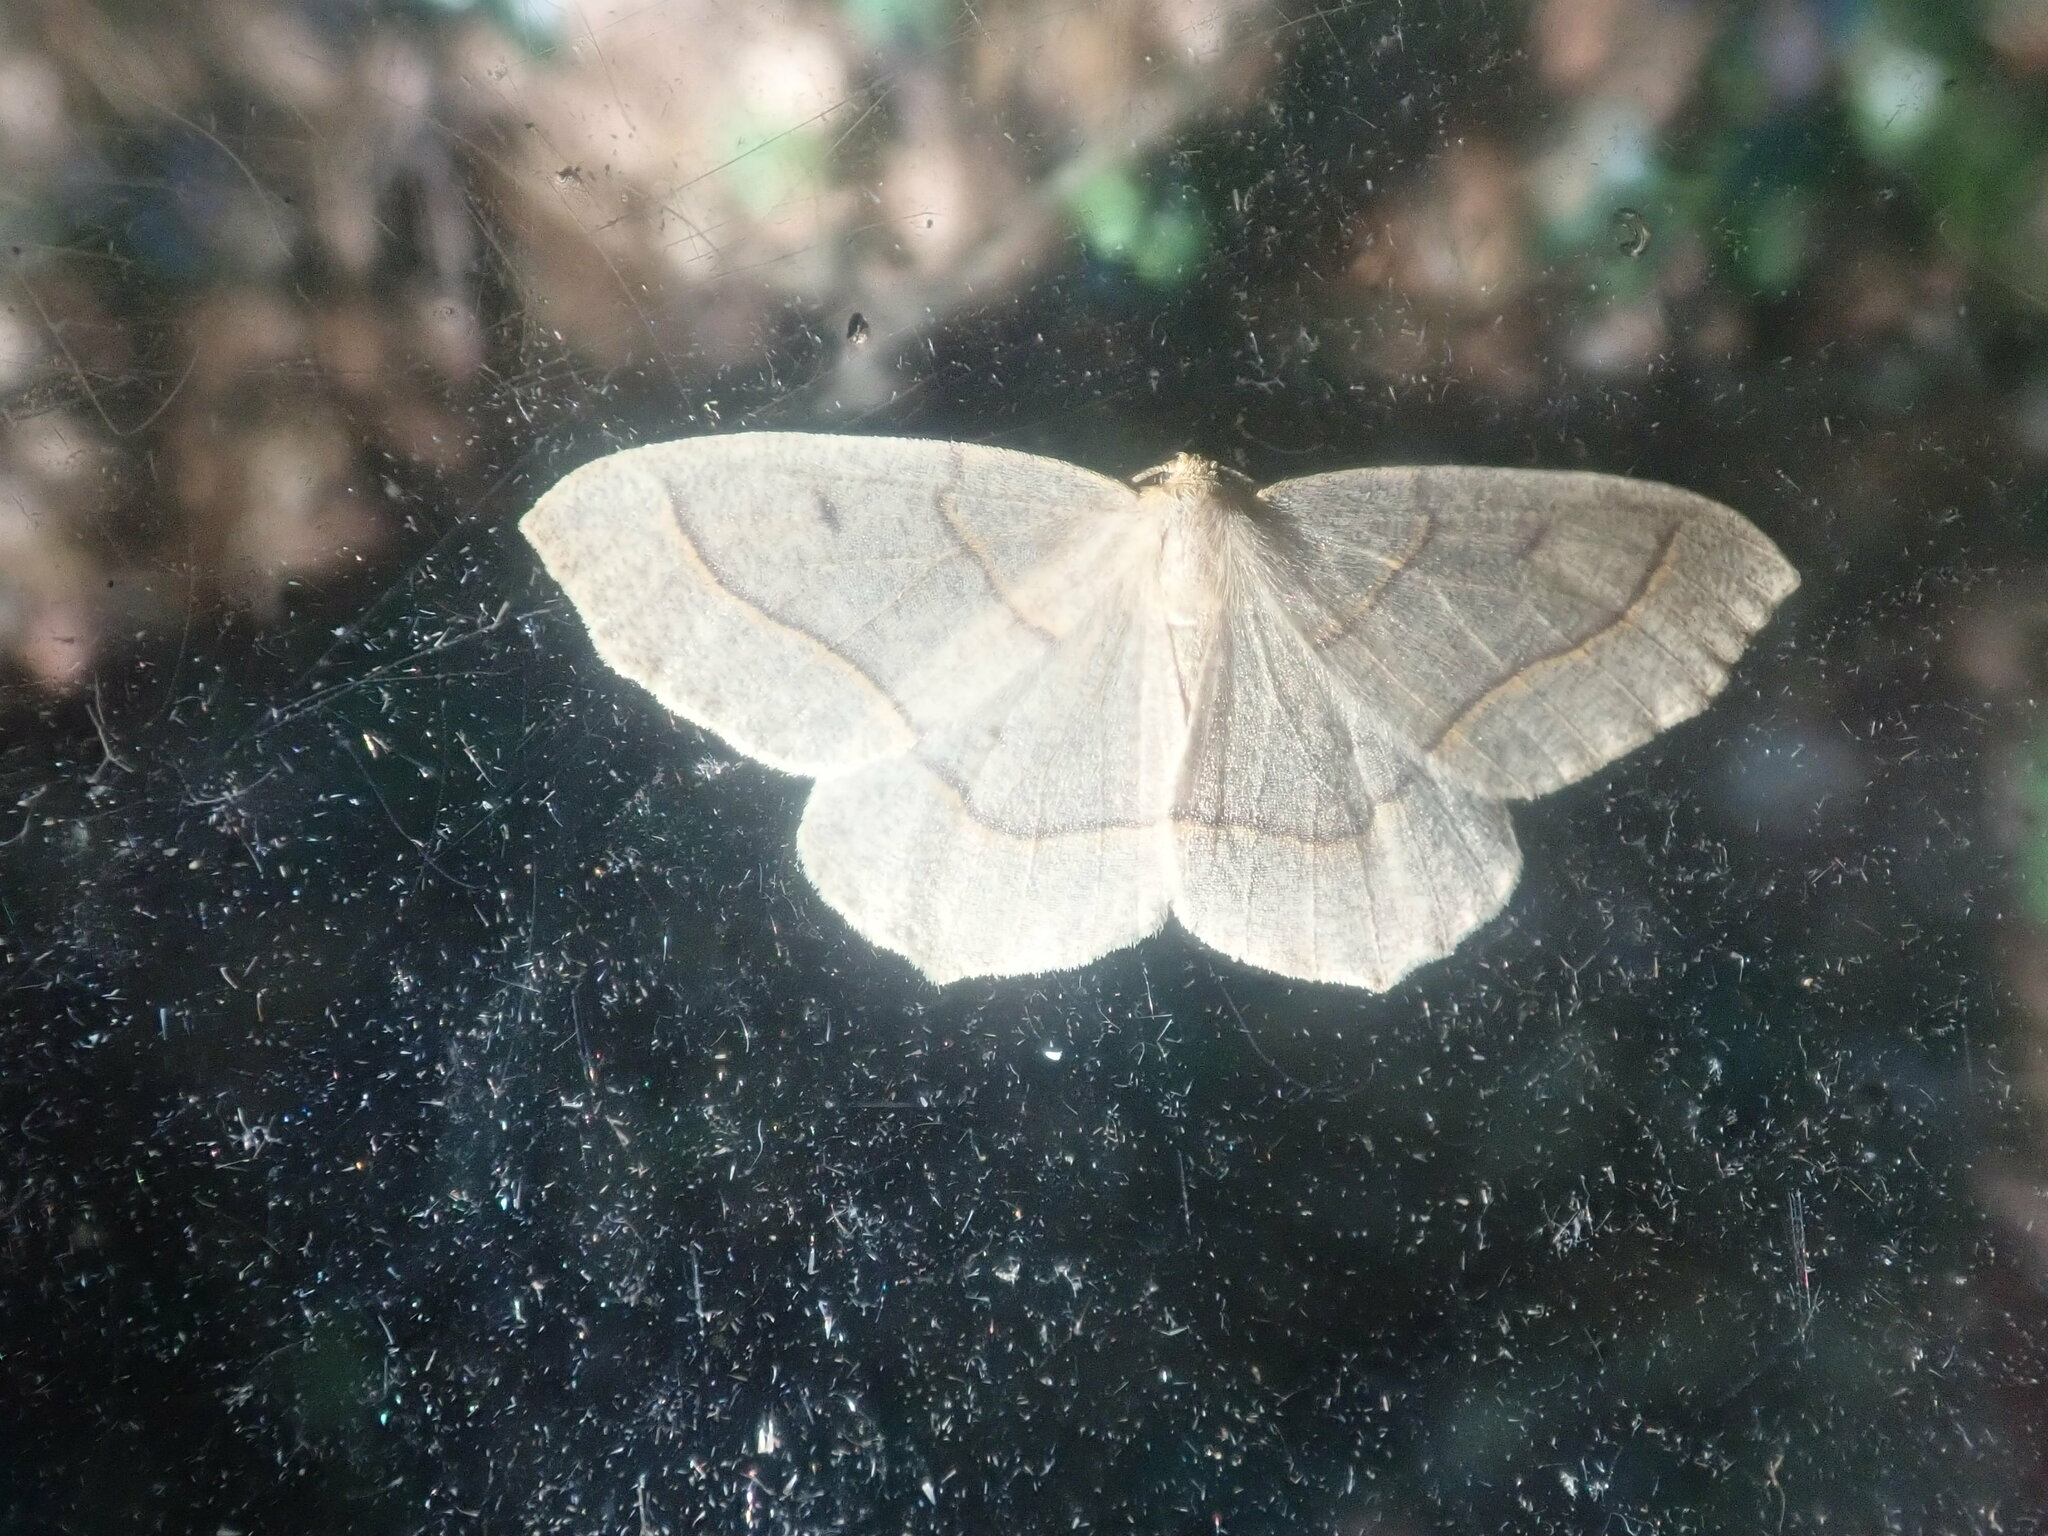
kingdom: Animalia
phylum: Arthropoda
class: Insecta
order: Lepidoptera
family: Geometridae
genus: Lambdina
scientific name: Lambdina fiscellaria
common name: Hemlock looper
